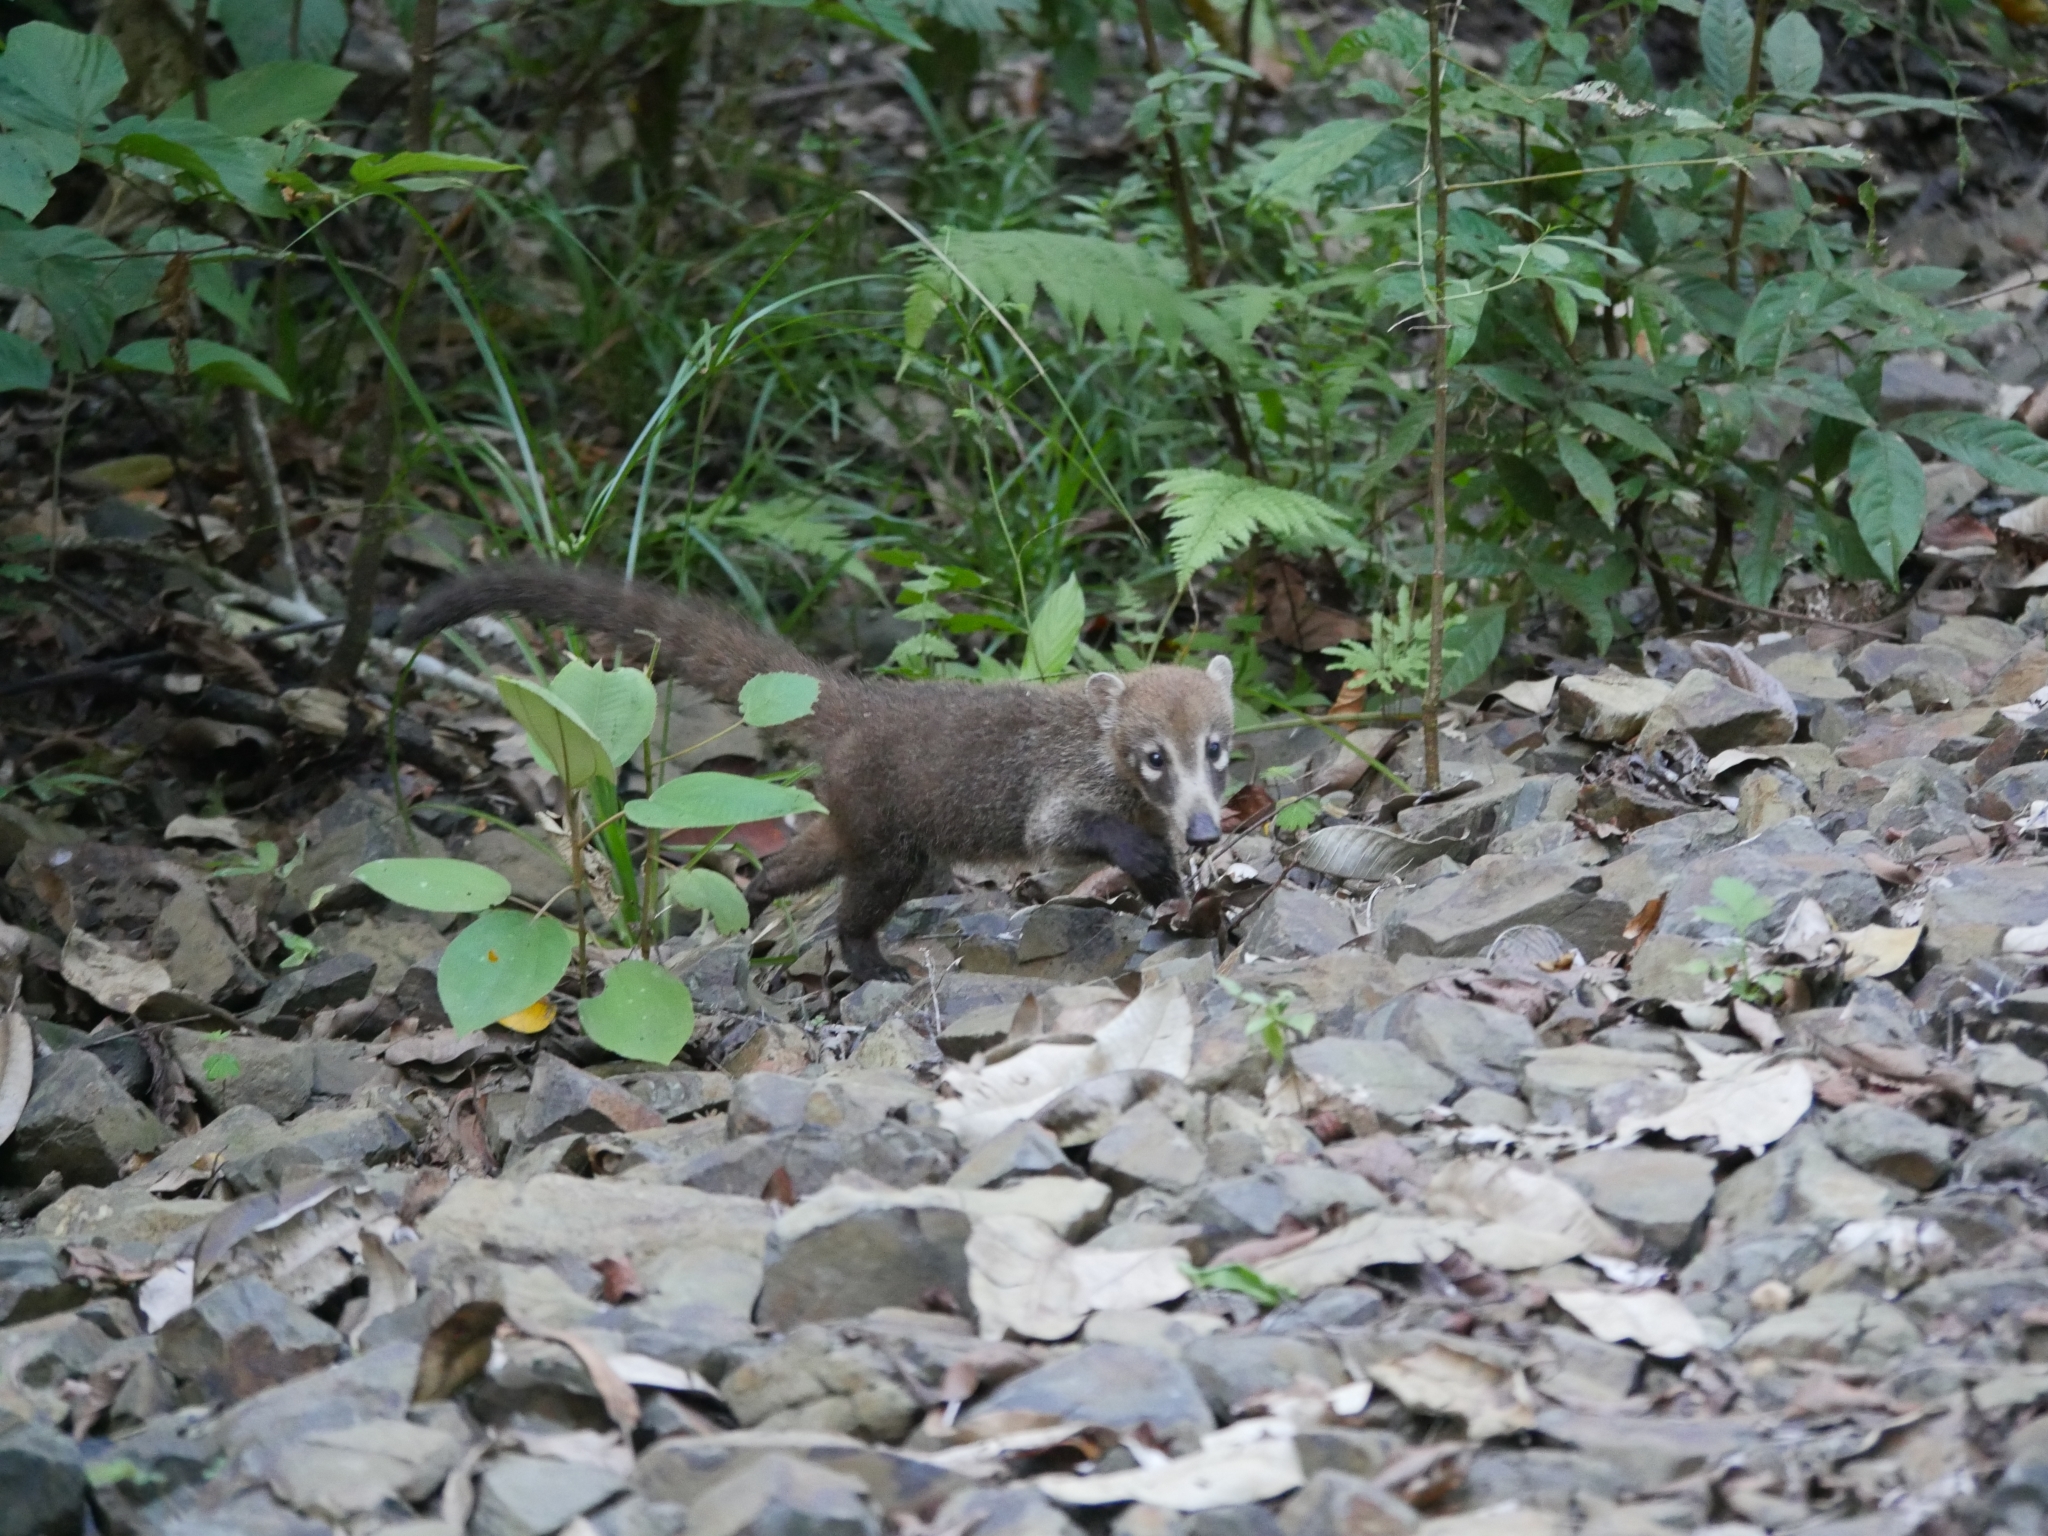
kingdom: Animalia
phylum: Chordata
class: Mammalia
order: Carnivora
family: Procyonidae
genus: Nasua
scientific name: Nasua narica
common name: White-nosed coati
